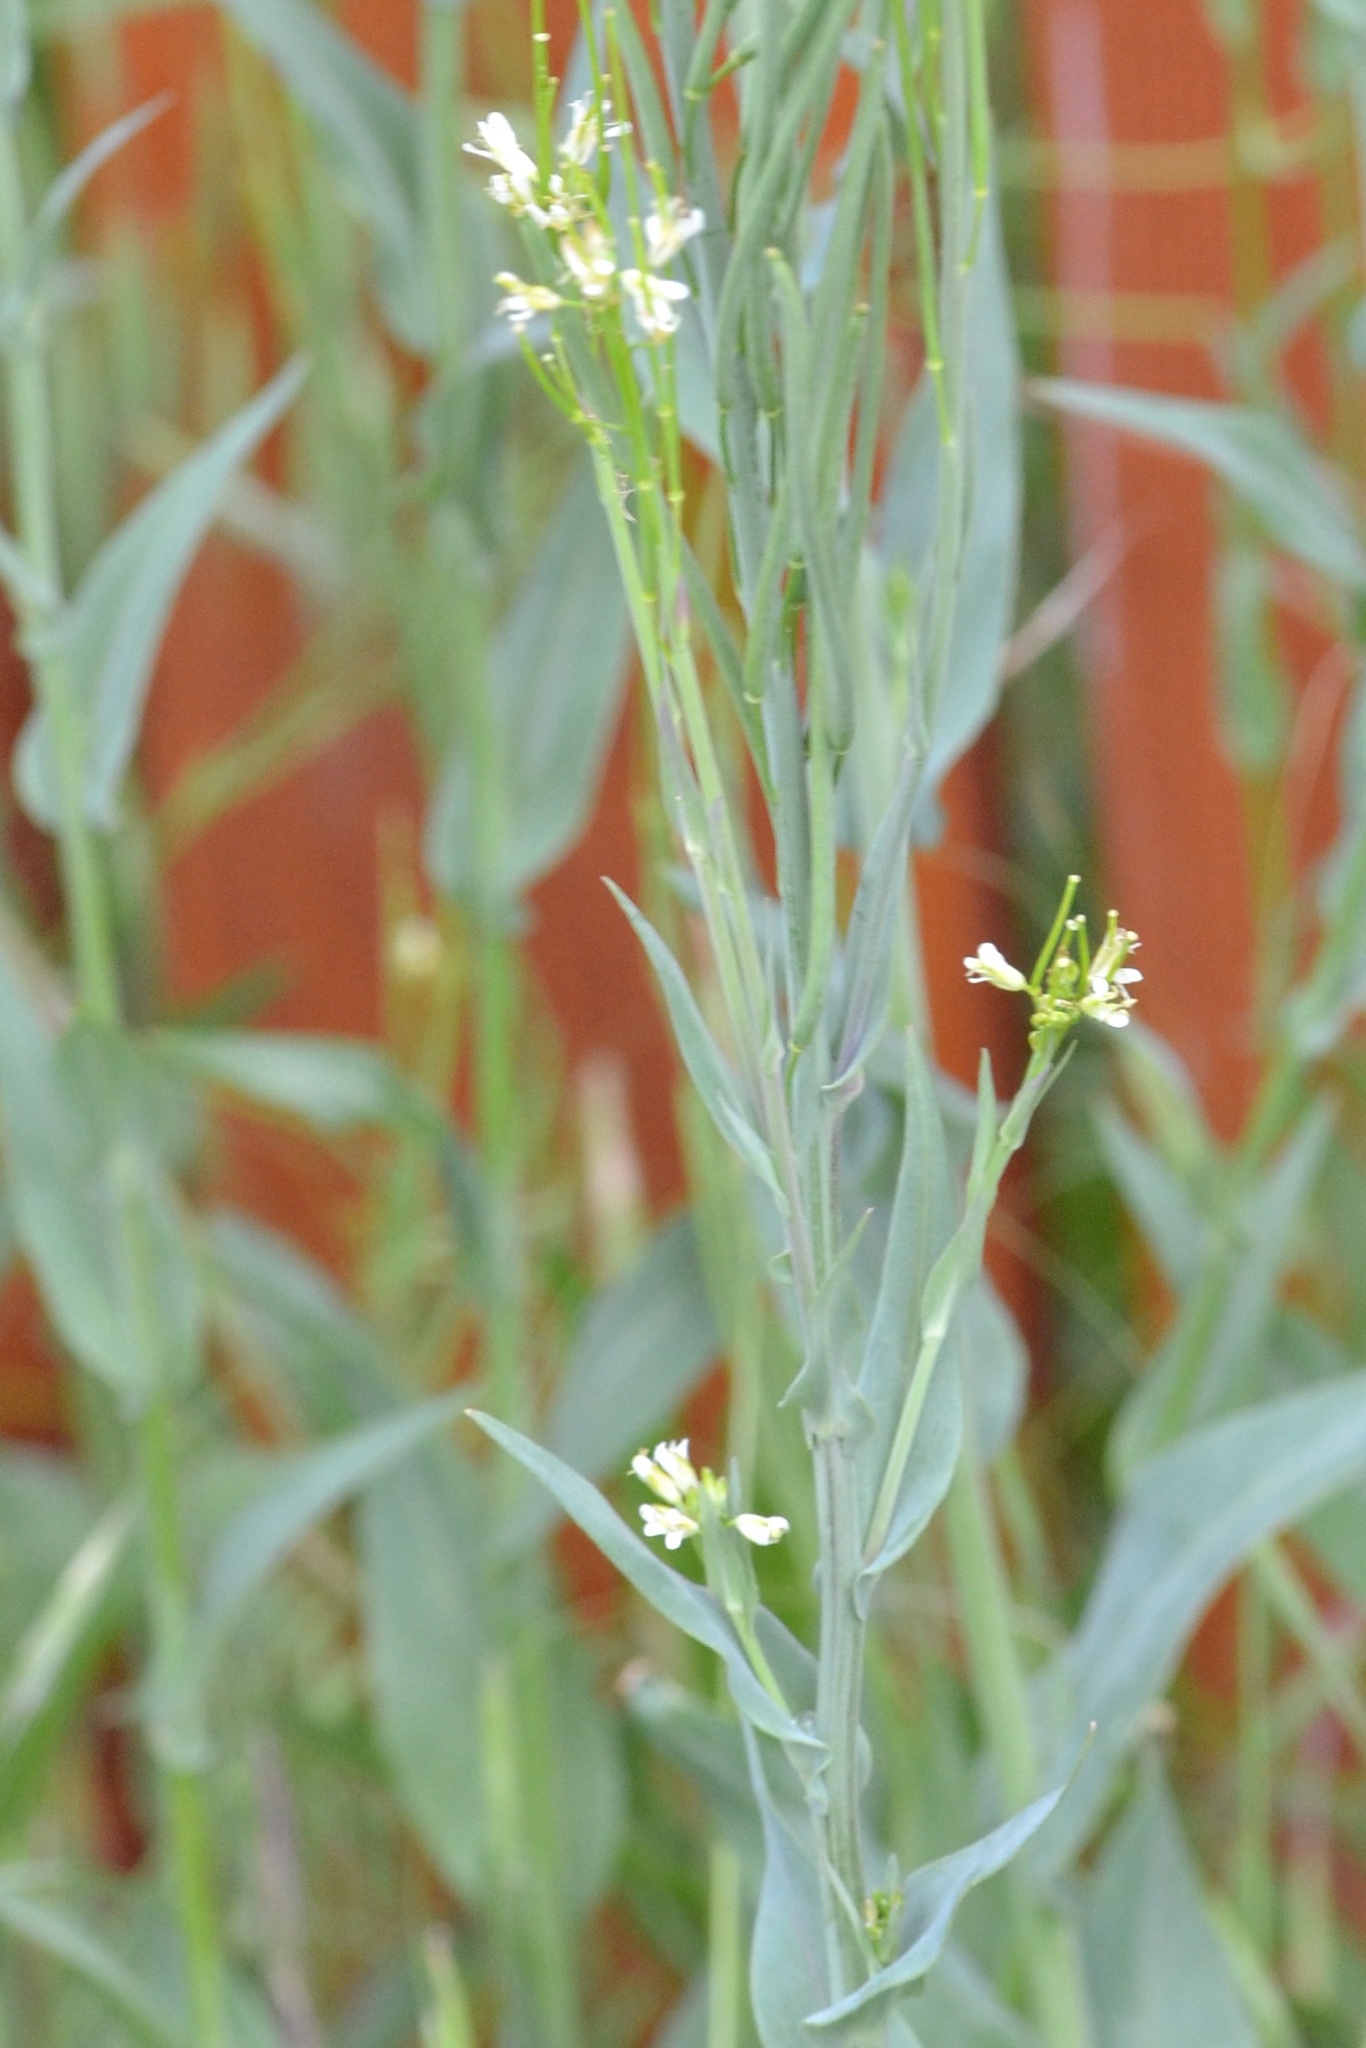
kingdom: Plantae
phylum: Tracheophyta
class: Magnoliopsida
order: Brassicales
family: Brassicaceae
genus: Turritis
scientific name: Turritis glabra
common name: Tower rockcress
